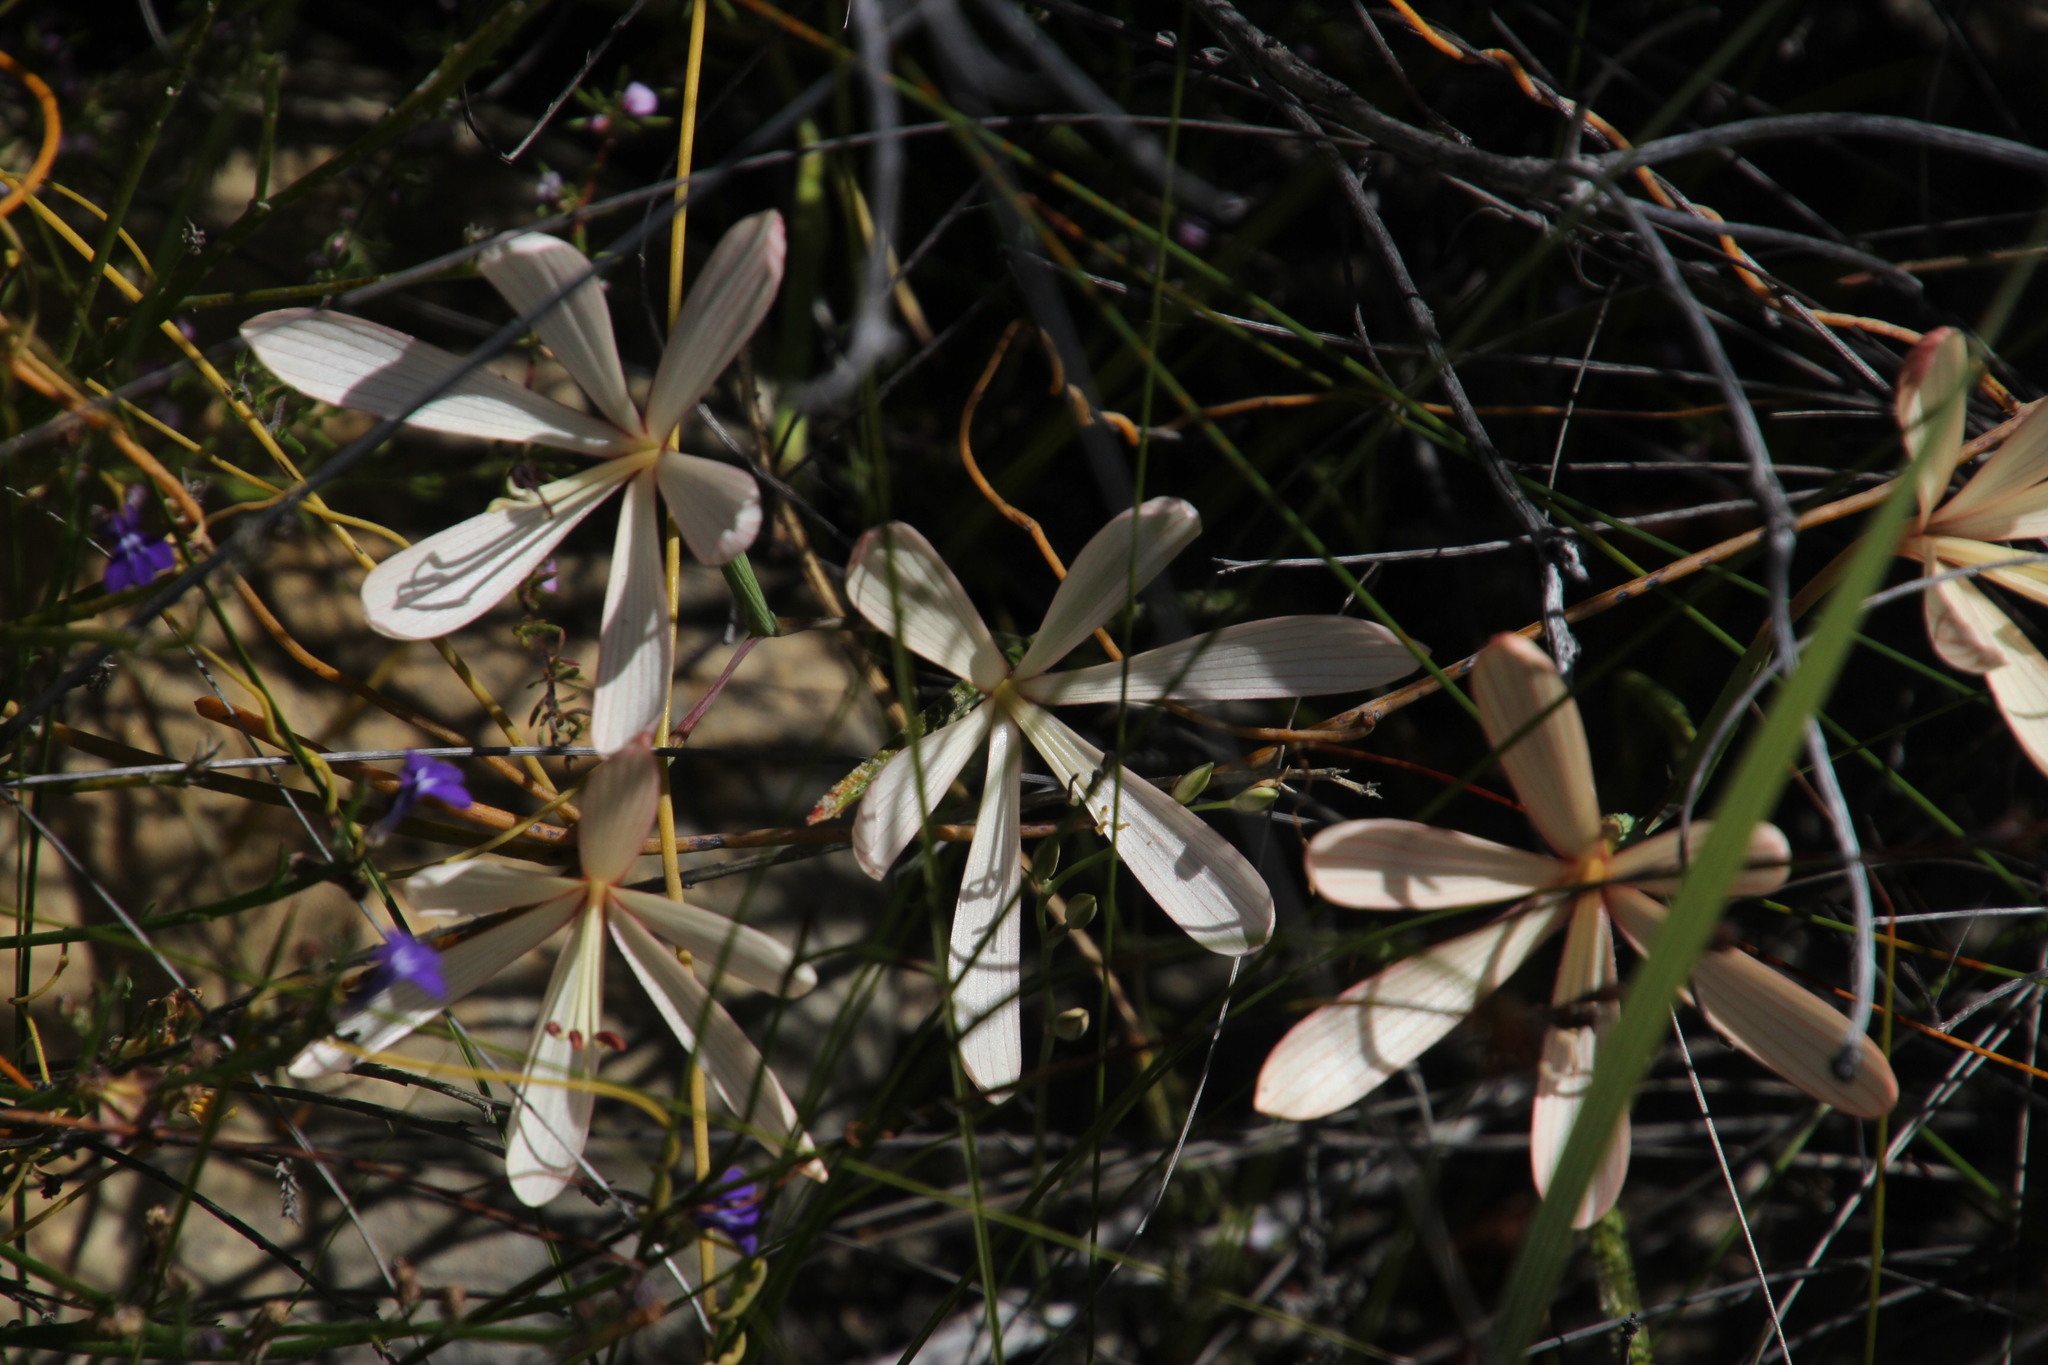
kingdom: Plantae
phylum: Tracheophyta
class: Liliopsida
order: Asparagales
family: Iridaceae
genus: Geissorhiza
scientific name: Geissorhiza exscapa
